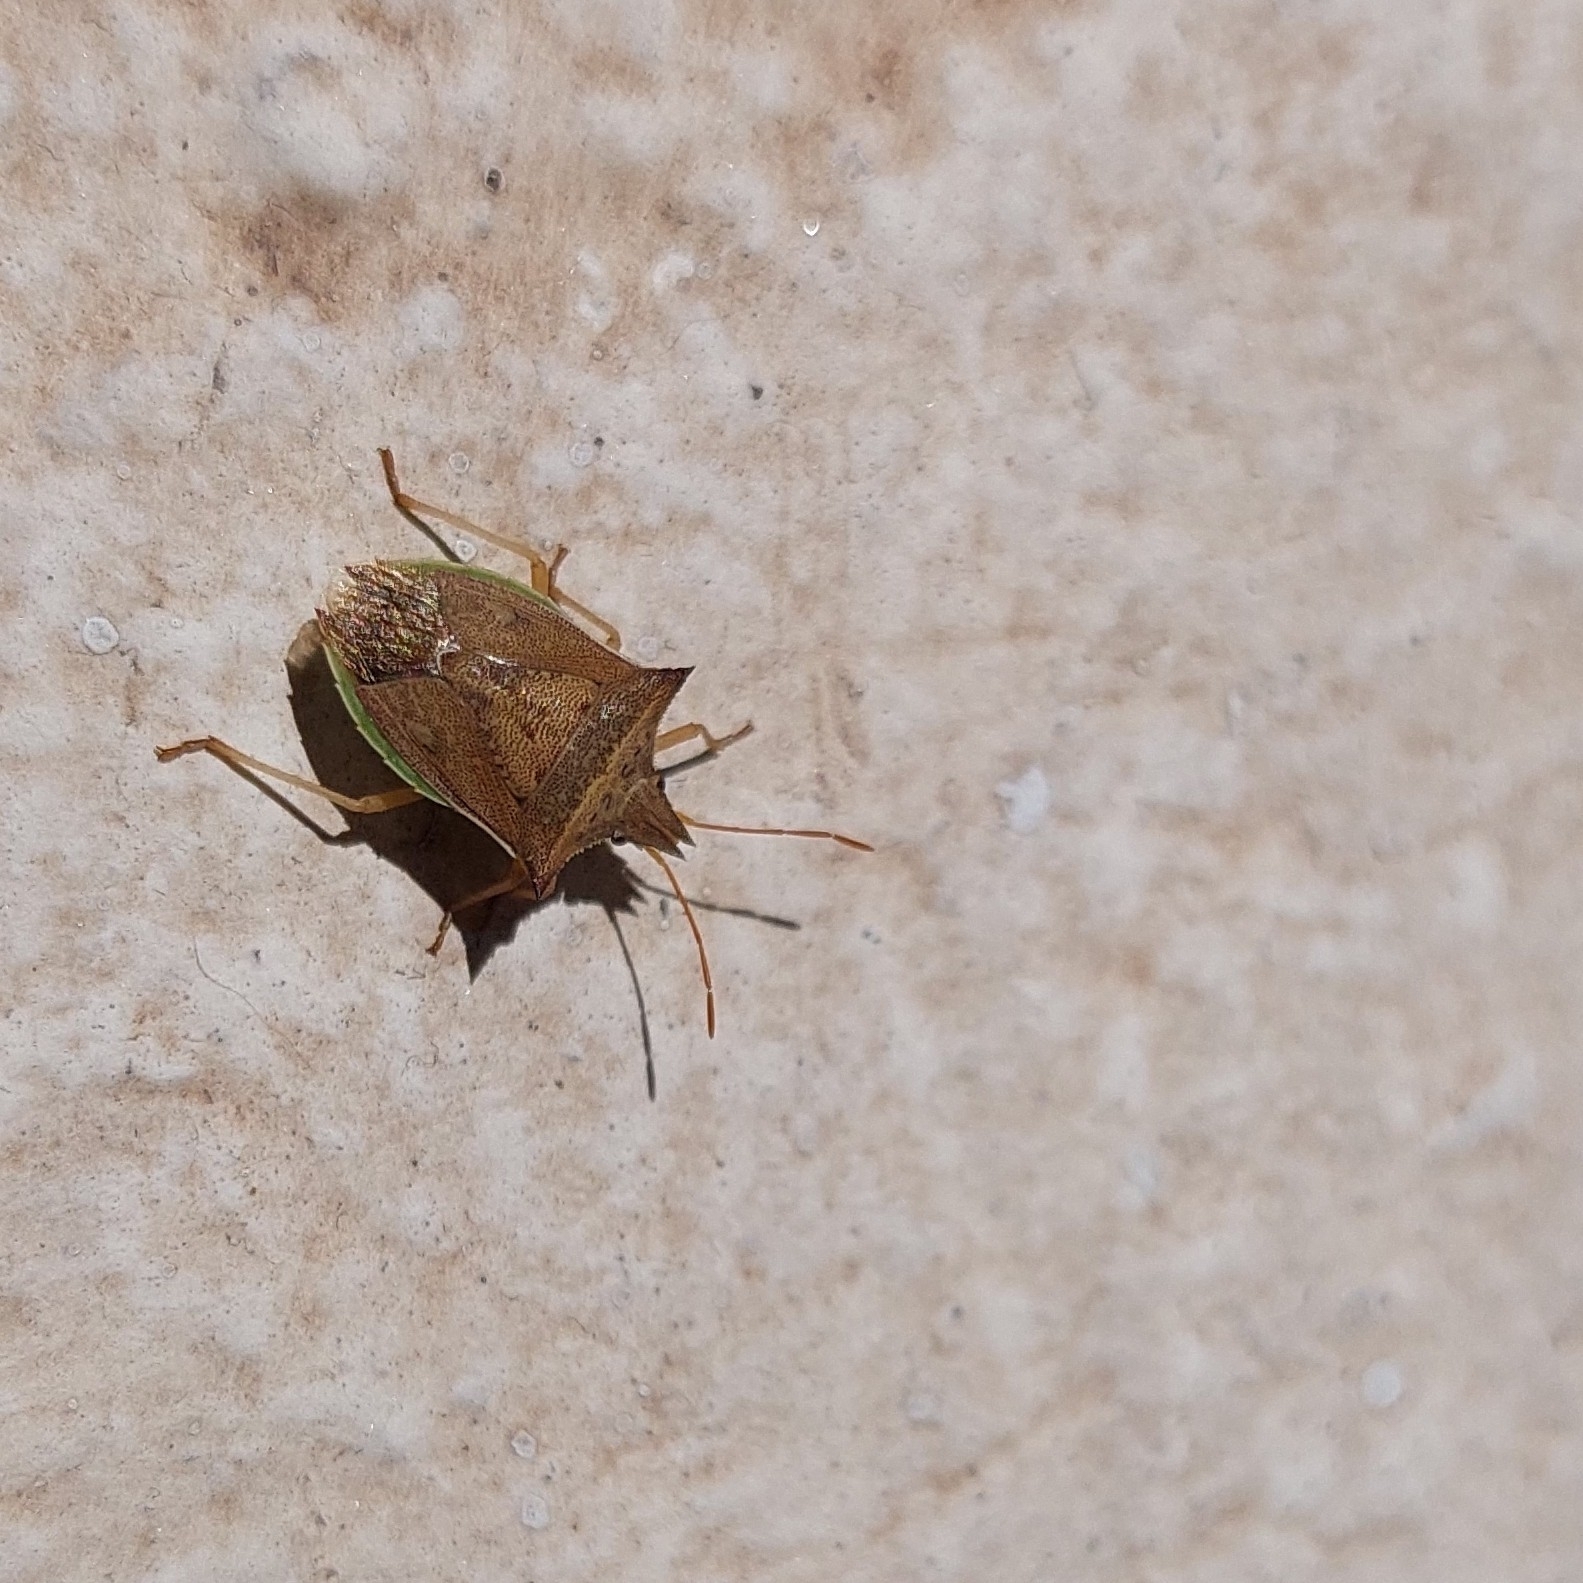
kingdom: Animalia
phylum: Arthropoda
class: Insecta
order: Hemiptera
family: Pentatomidae
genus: Diceraeus
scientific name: Diceraeus furcatus
